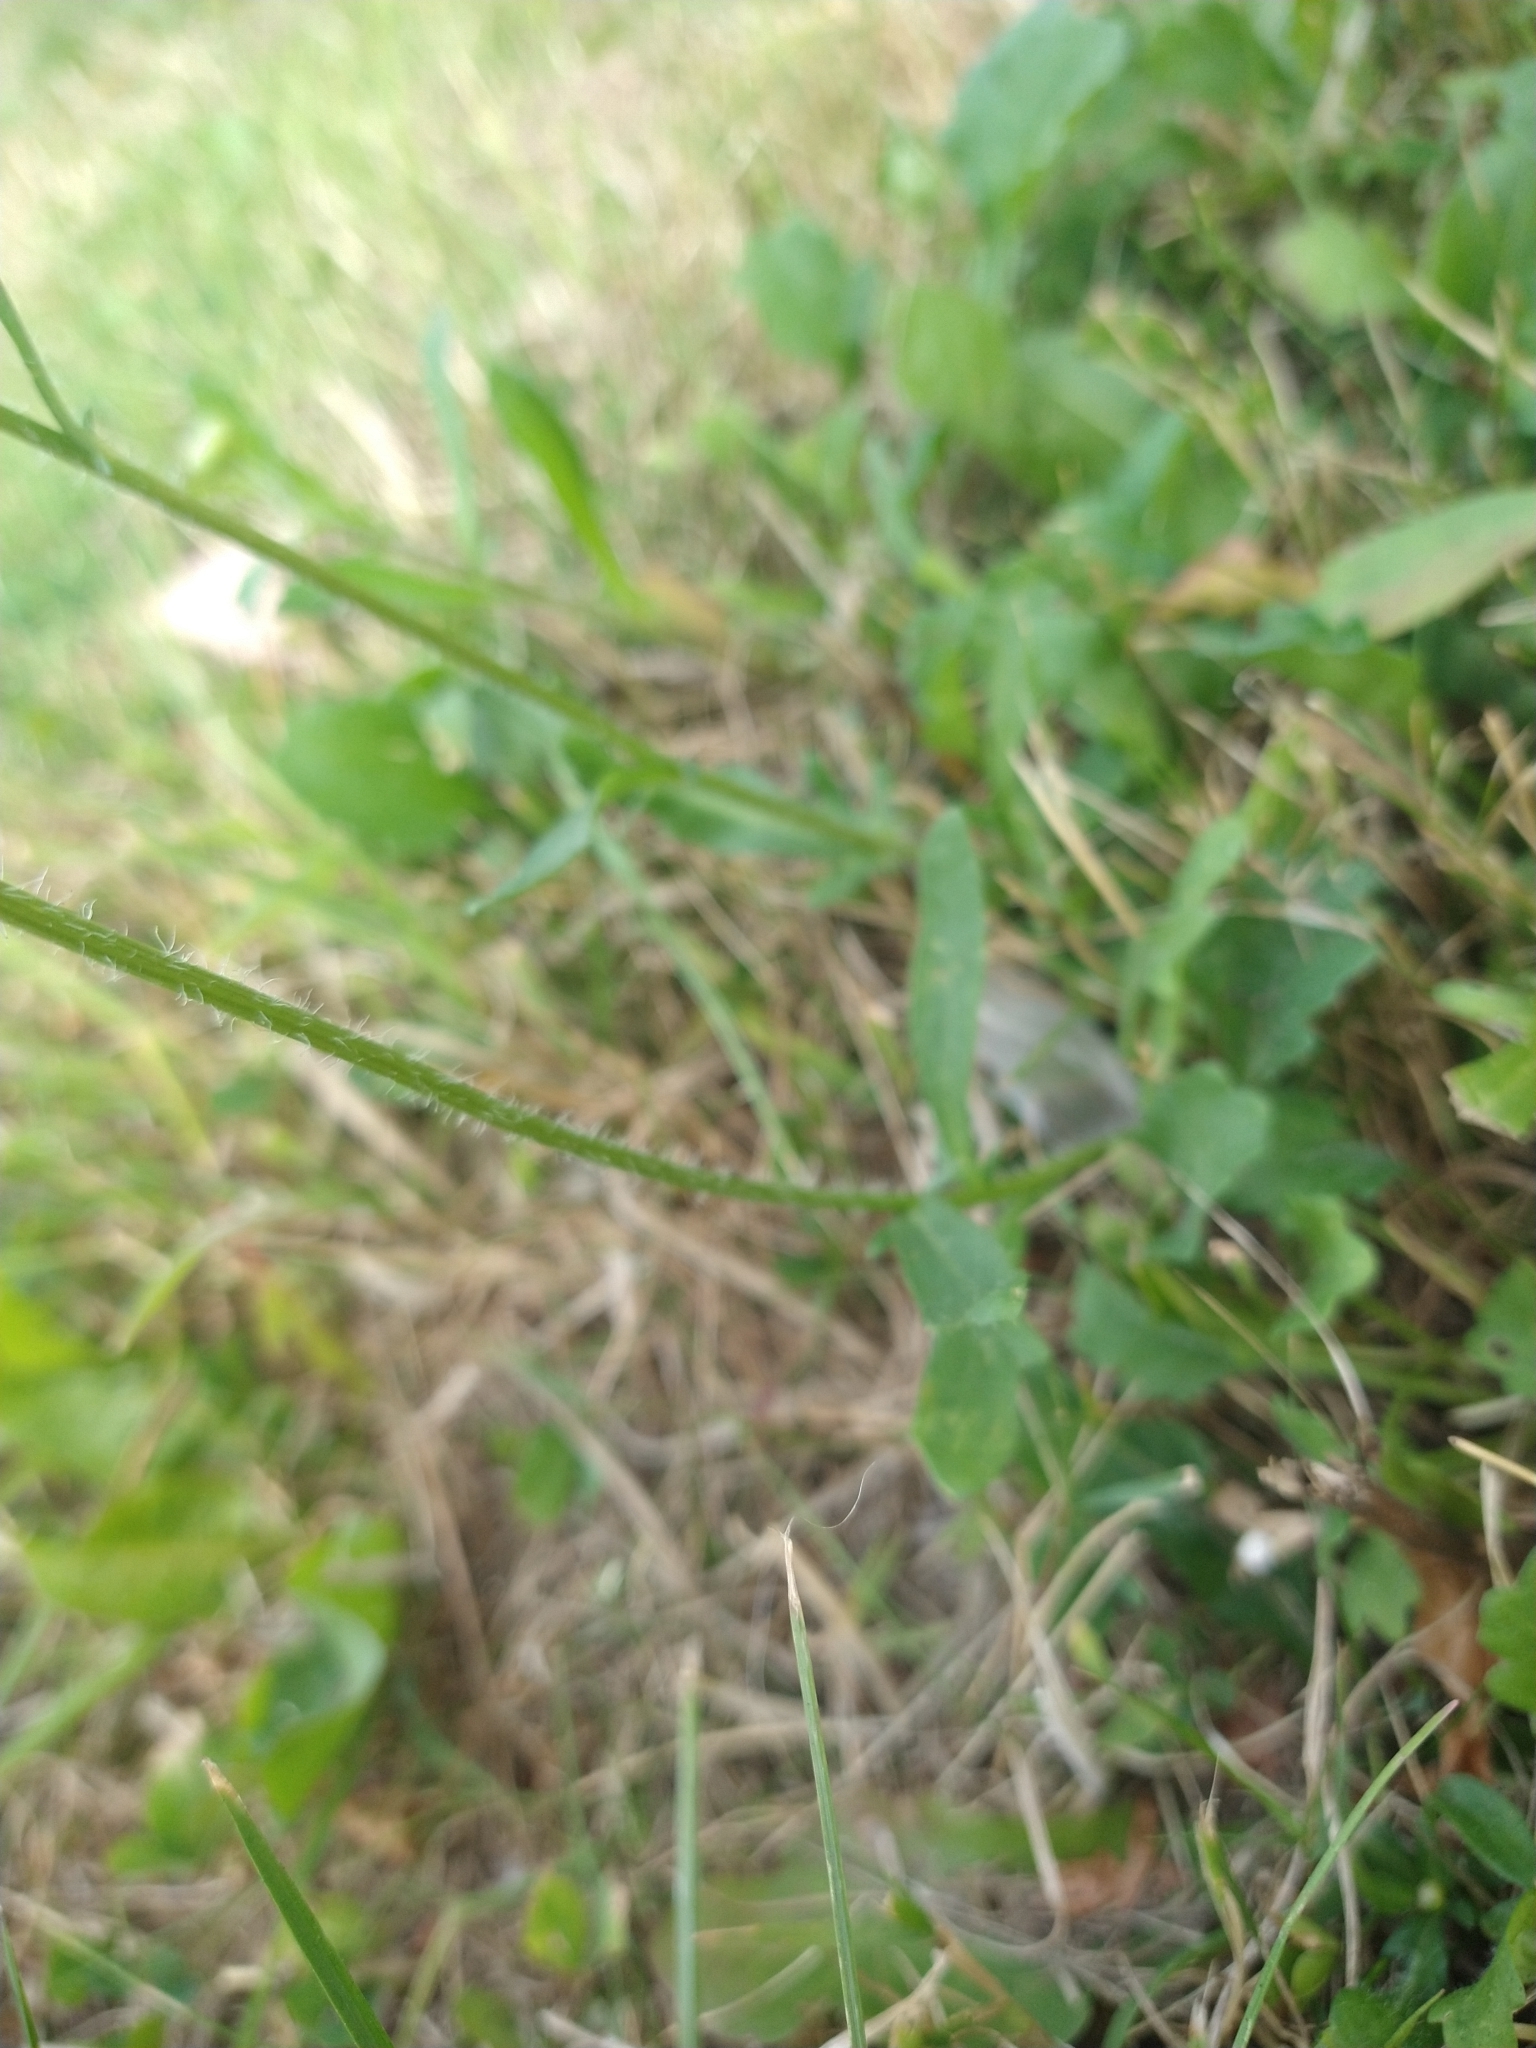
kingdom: Plantae
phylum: Tracheophyta
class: Magnoliopsida
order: Asterales
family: Asteraceae
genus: Leucanthemum
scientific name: Leucanthemum vulgare
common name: Oxeye daisy
